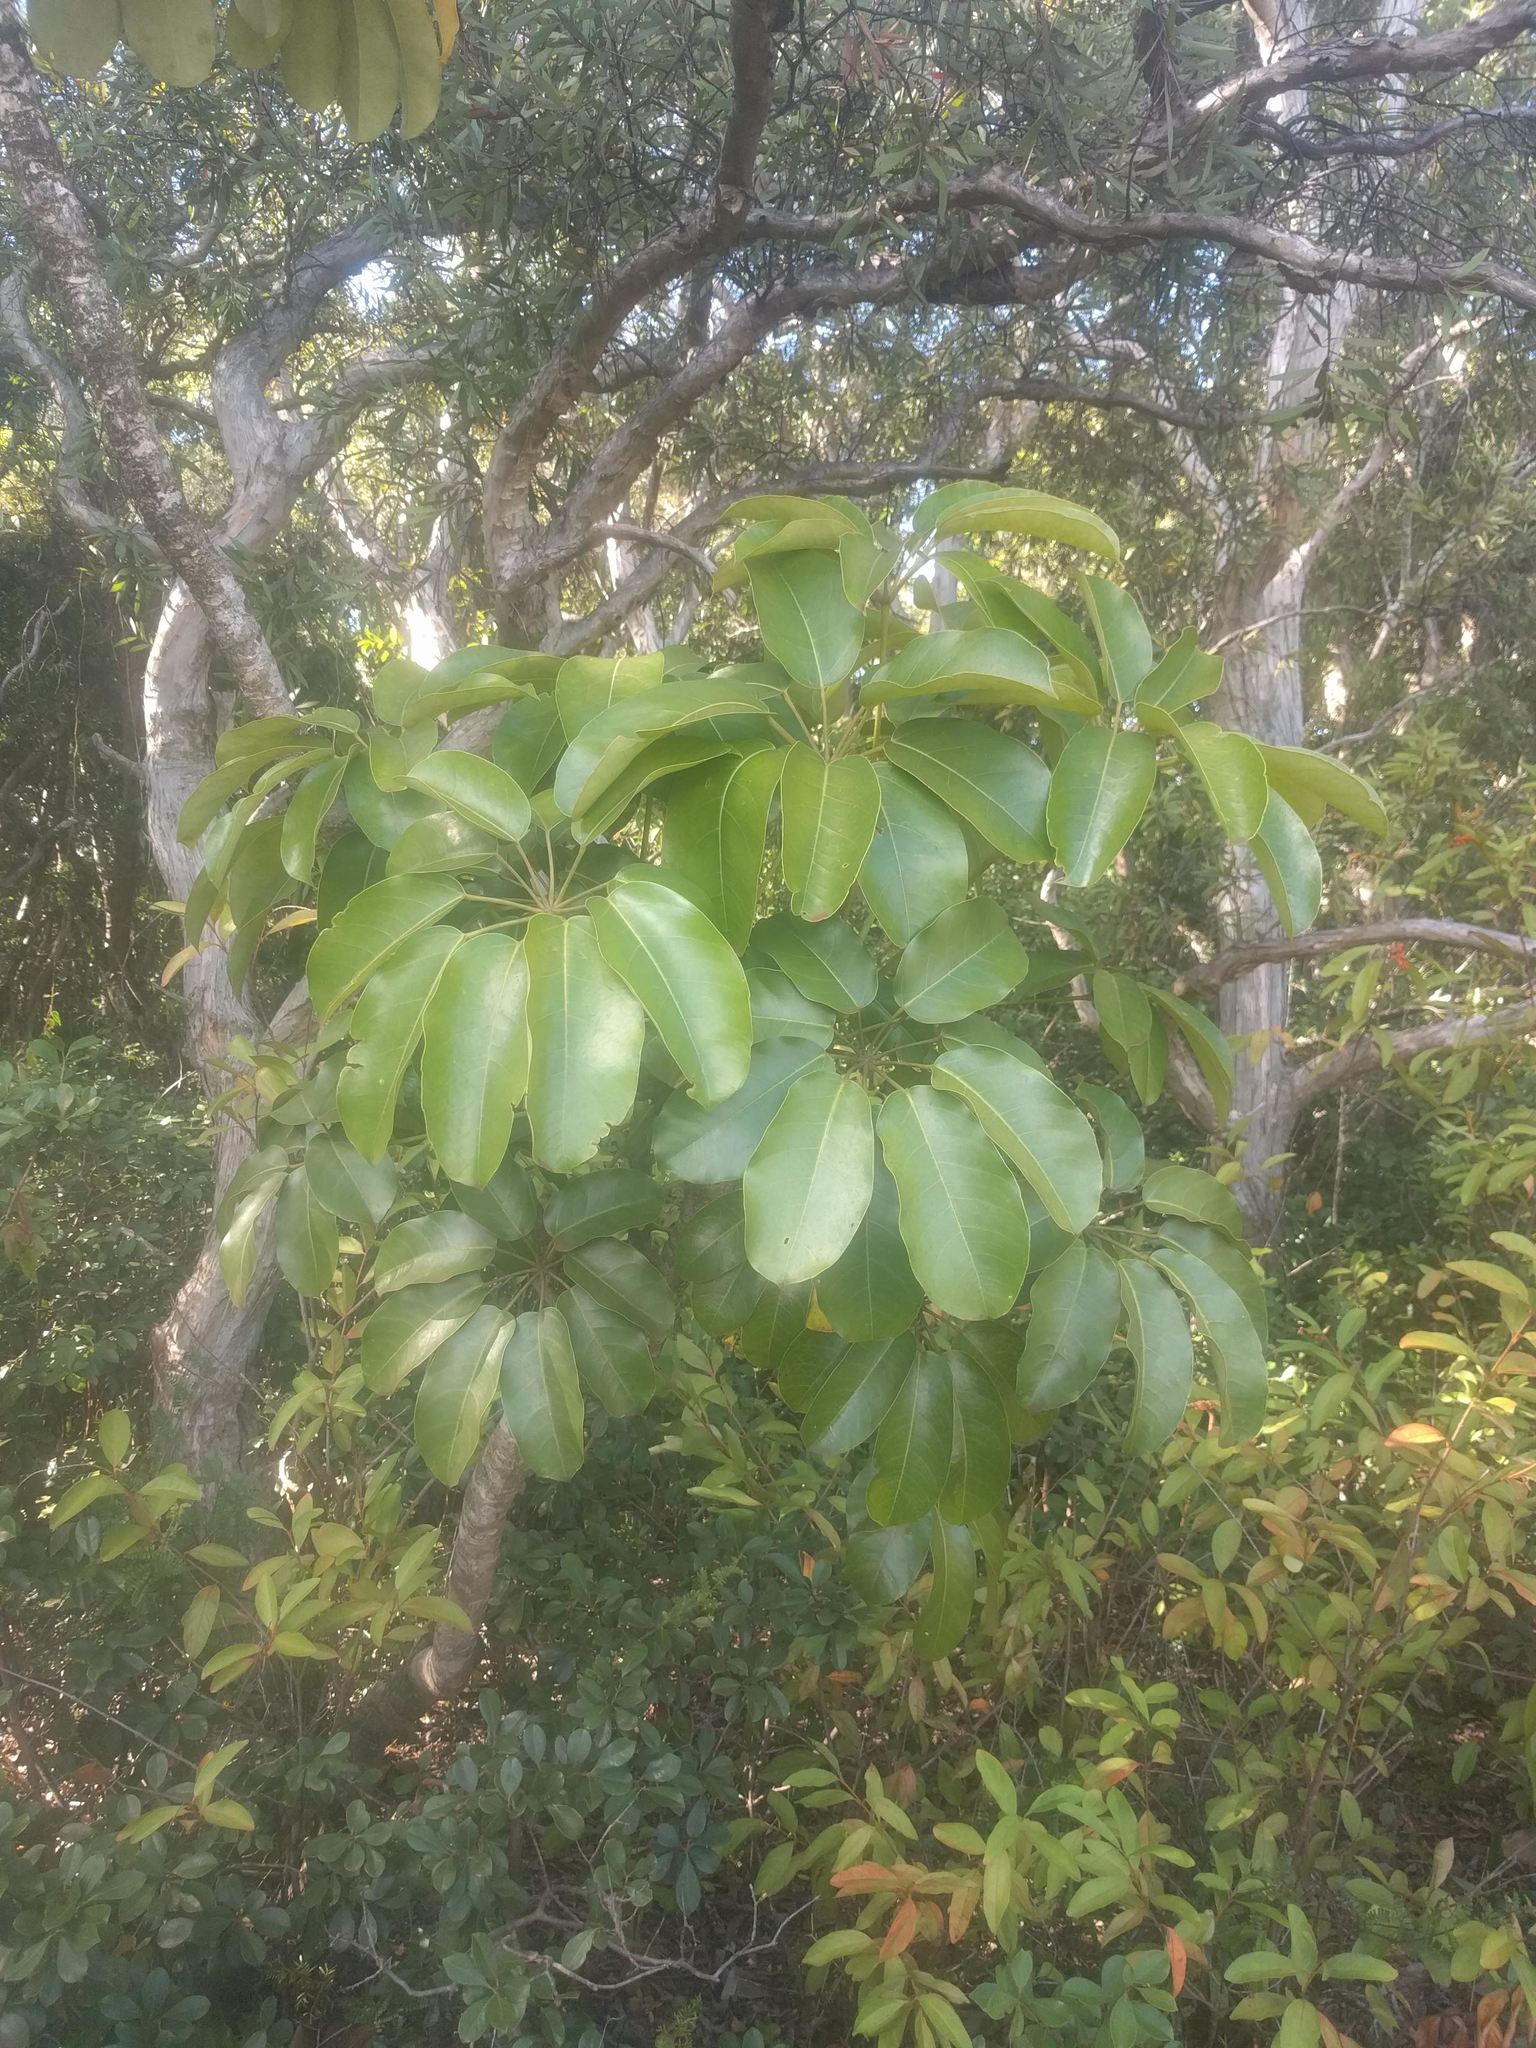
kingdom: Plantae
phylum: Tracheophyta
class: Magnoliopsida
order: Apiales
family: Araliaceae
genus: Heptapleurum
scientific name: Heptapleurum actinophyllum
